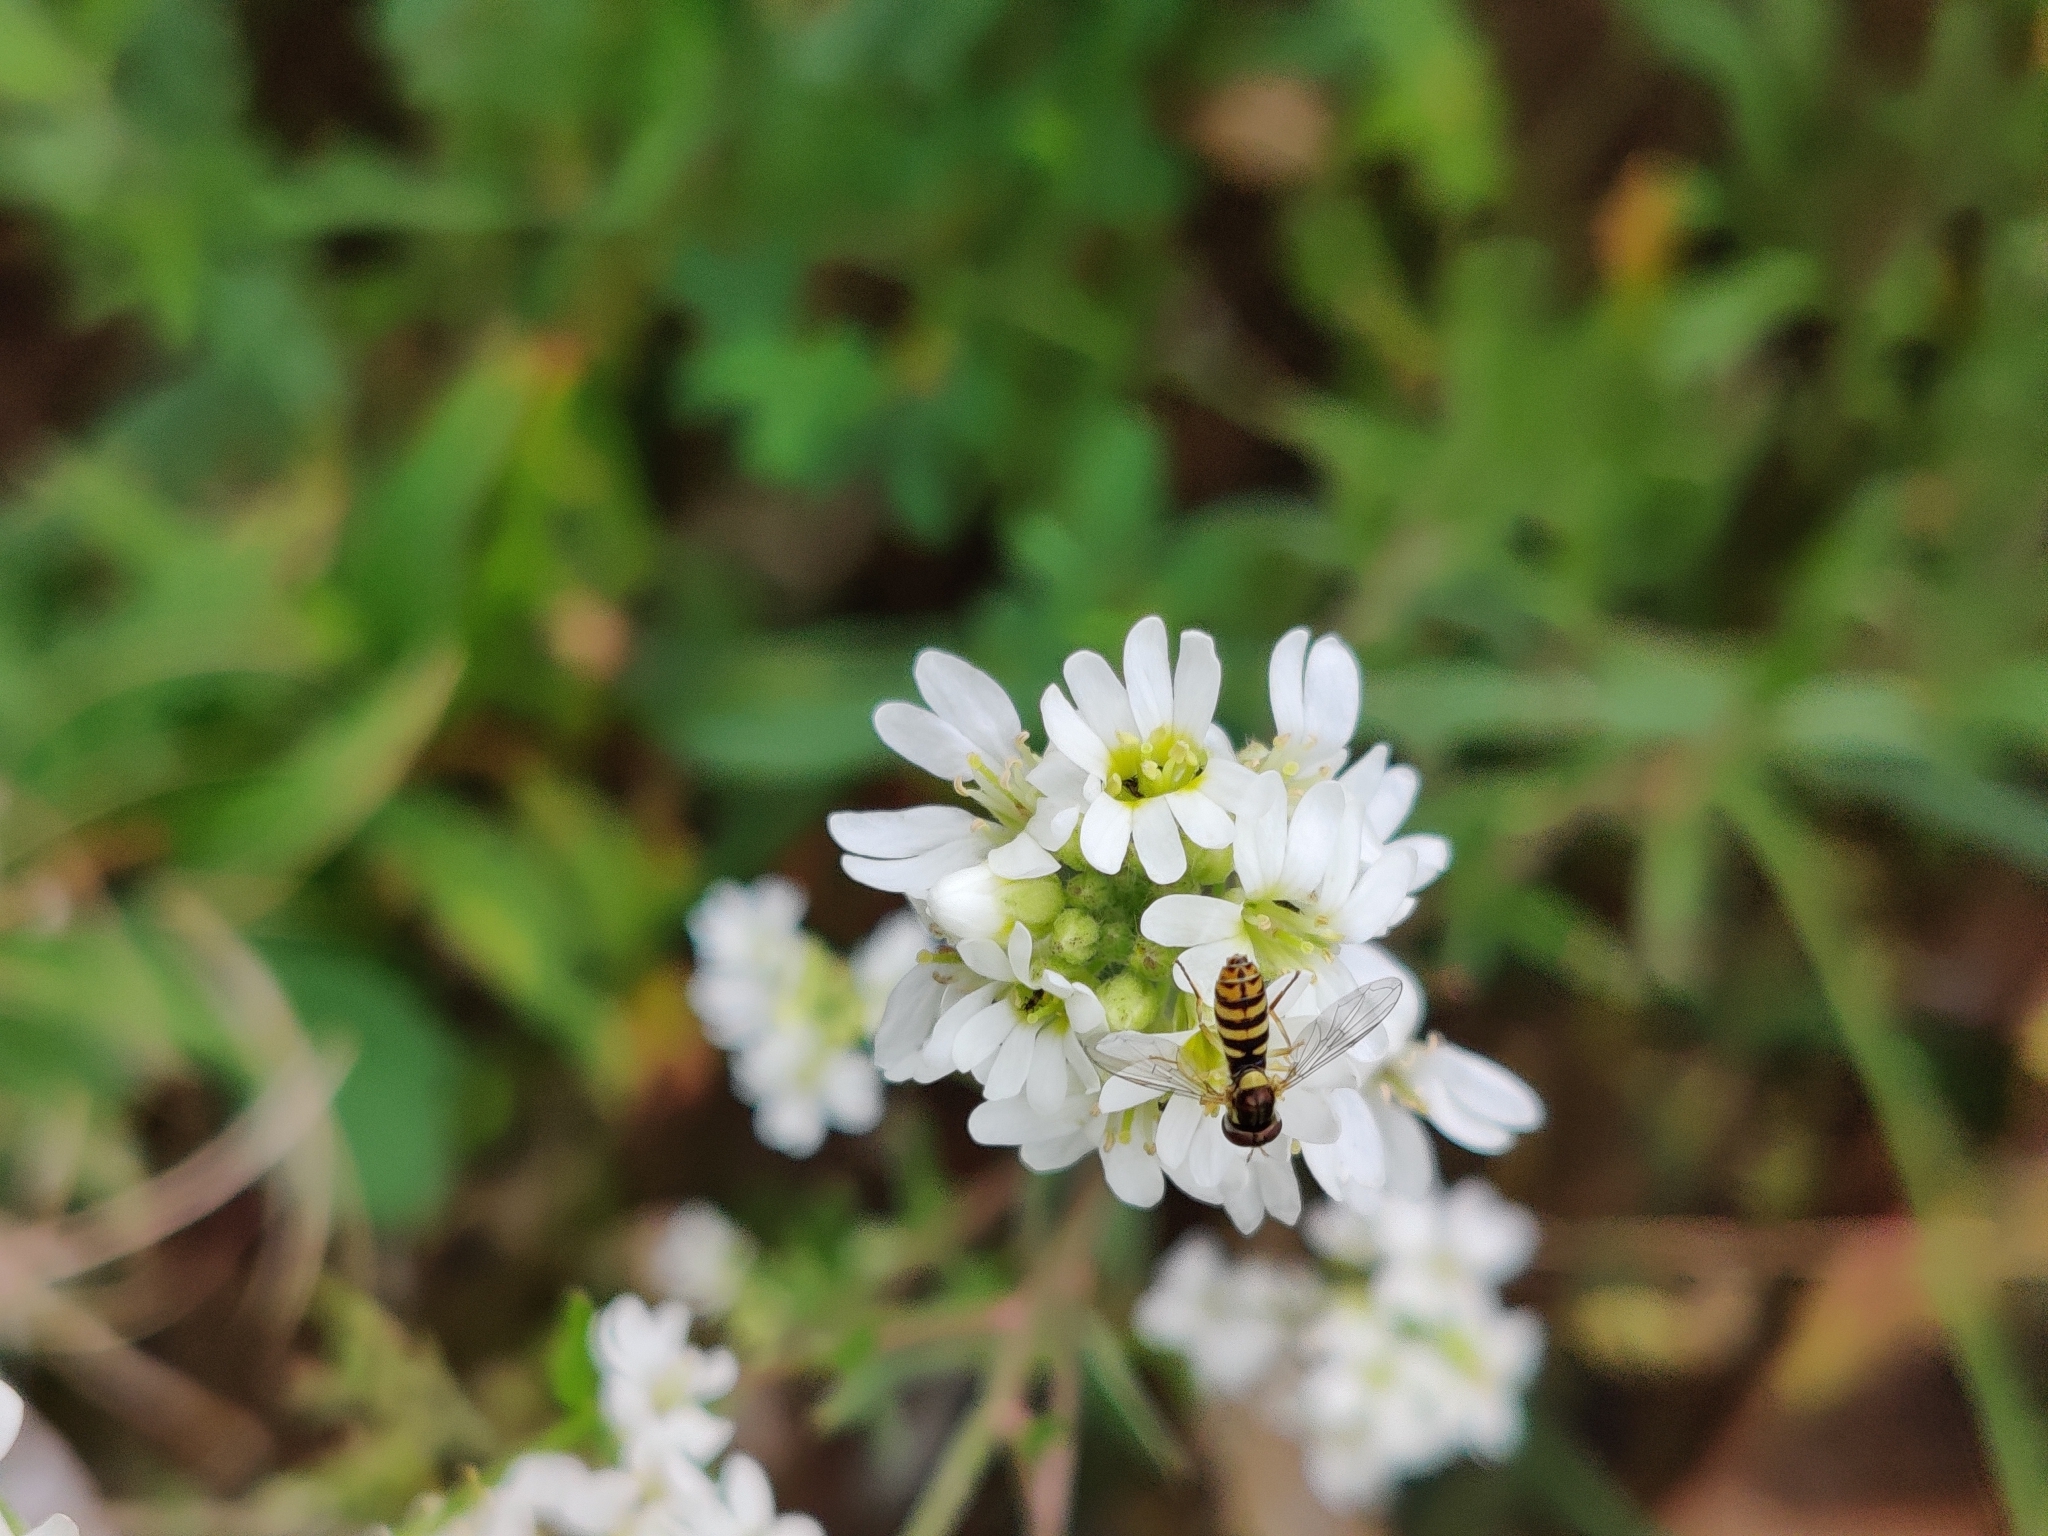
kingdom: Animalia
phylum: Arthropoda
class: Insecta
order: Diptera
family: Syrphidae
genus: Sphaerophoria
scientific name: Sphaerophoria
